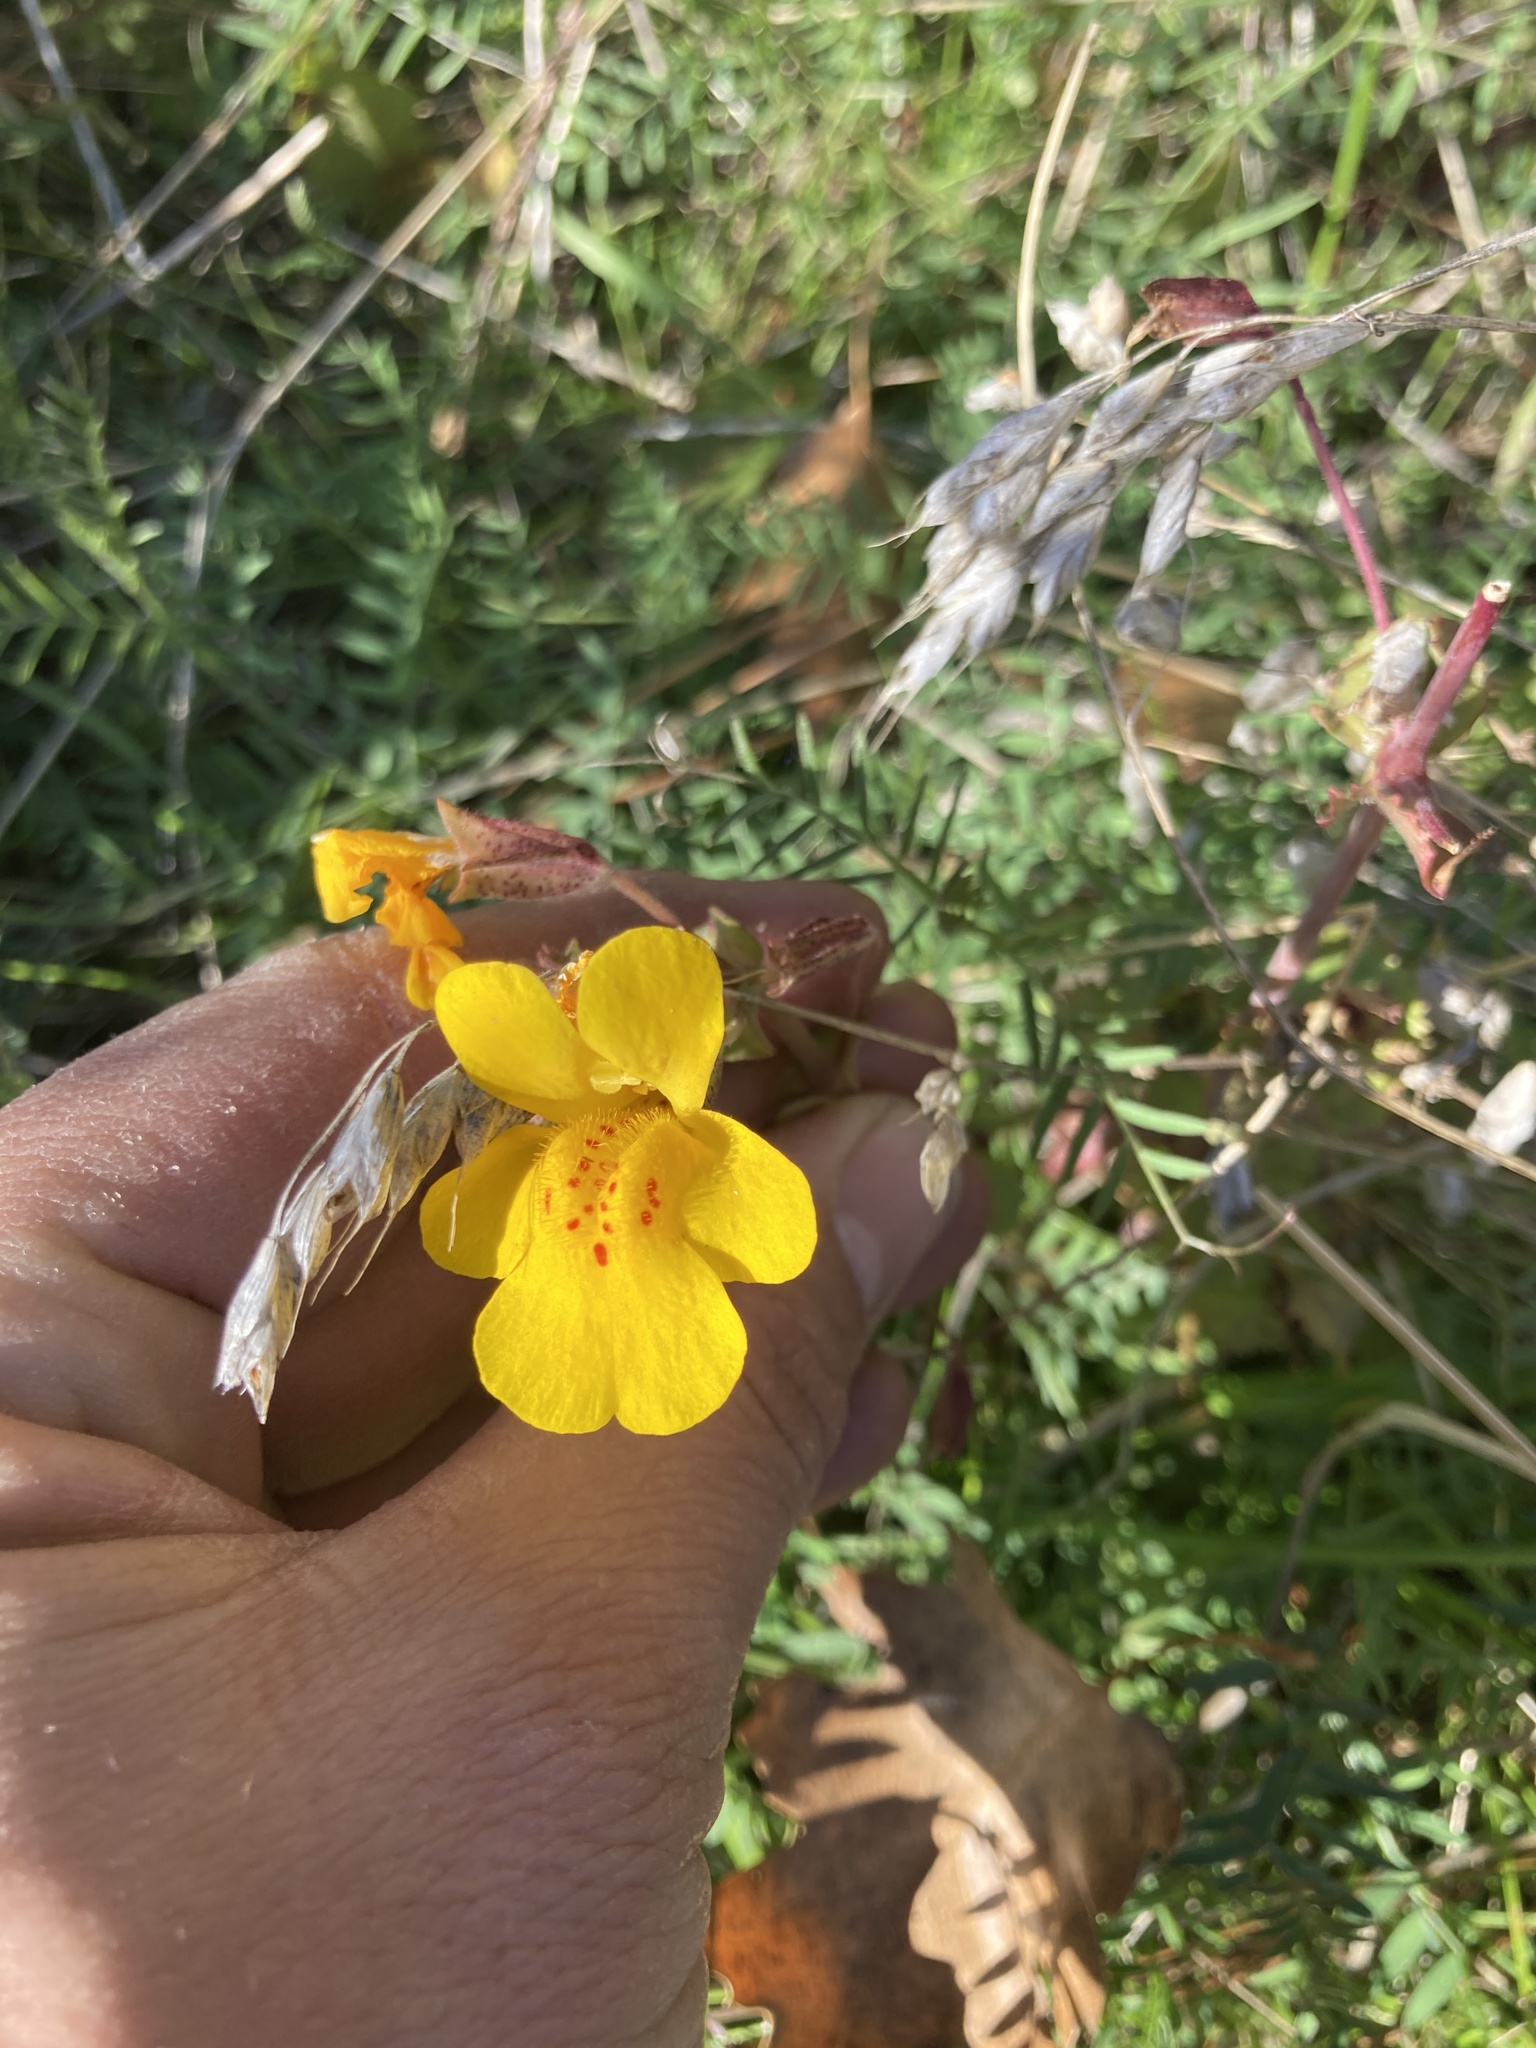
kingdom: Plantae
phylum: Tracheophyta
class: Magnoliopsida
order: Lamiales
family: Phrymaceae
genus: Erythranthe
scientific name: Erythranthe guttata
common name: Monkeyflower
